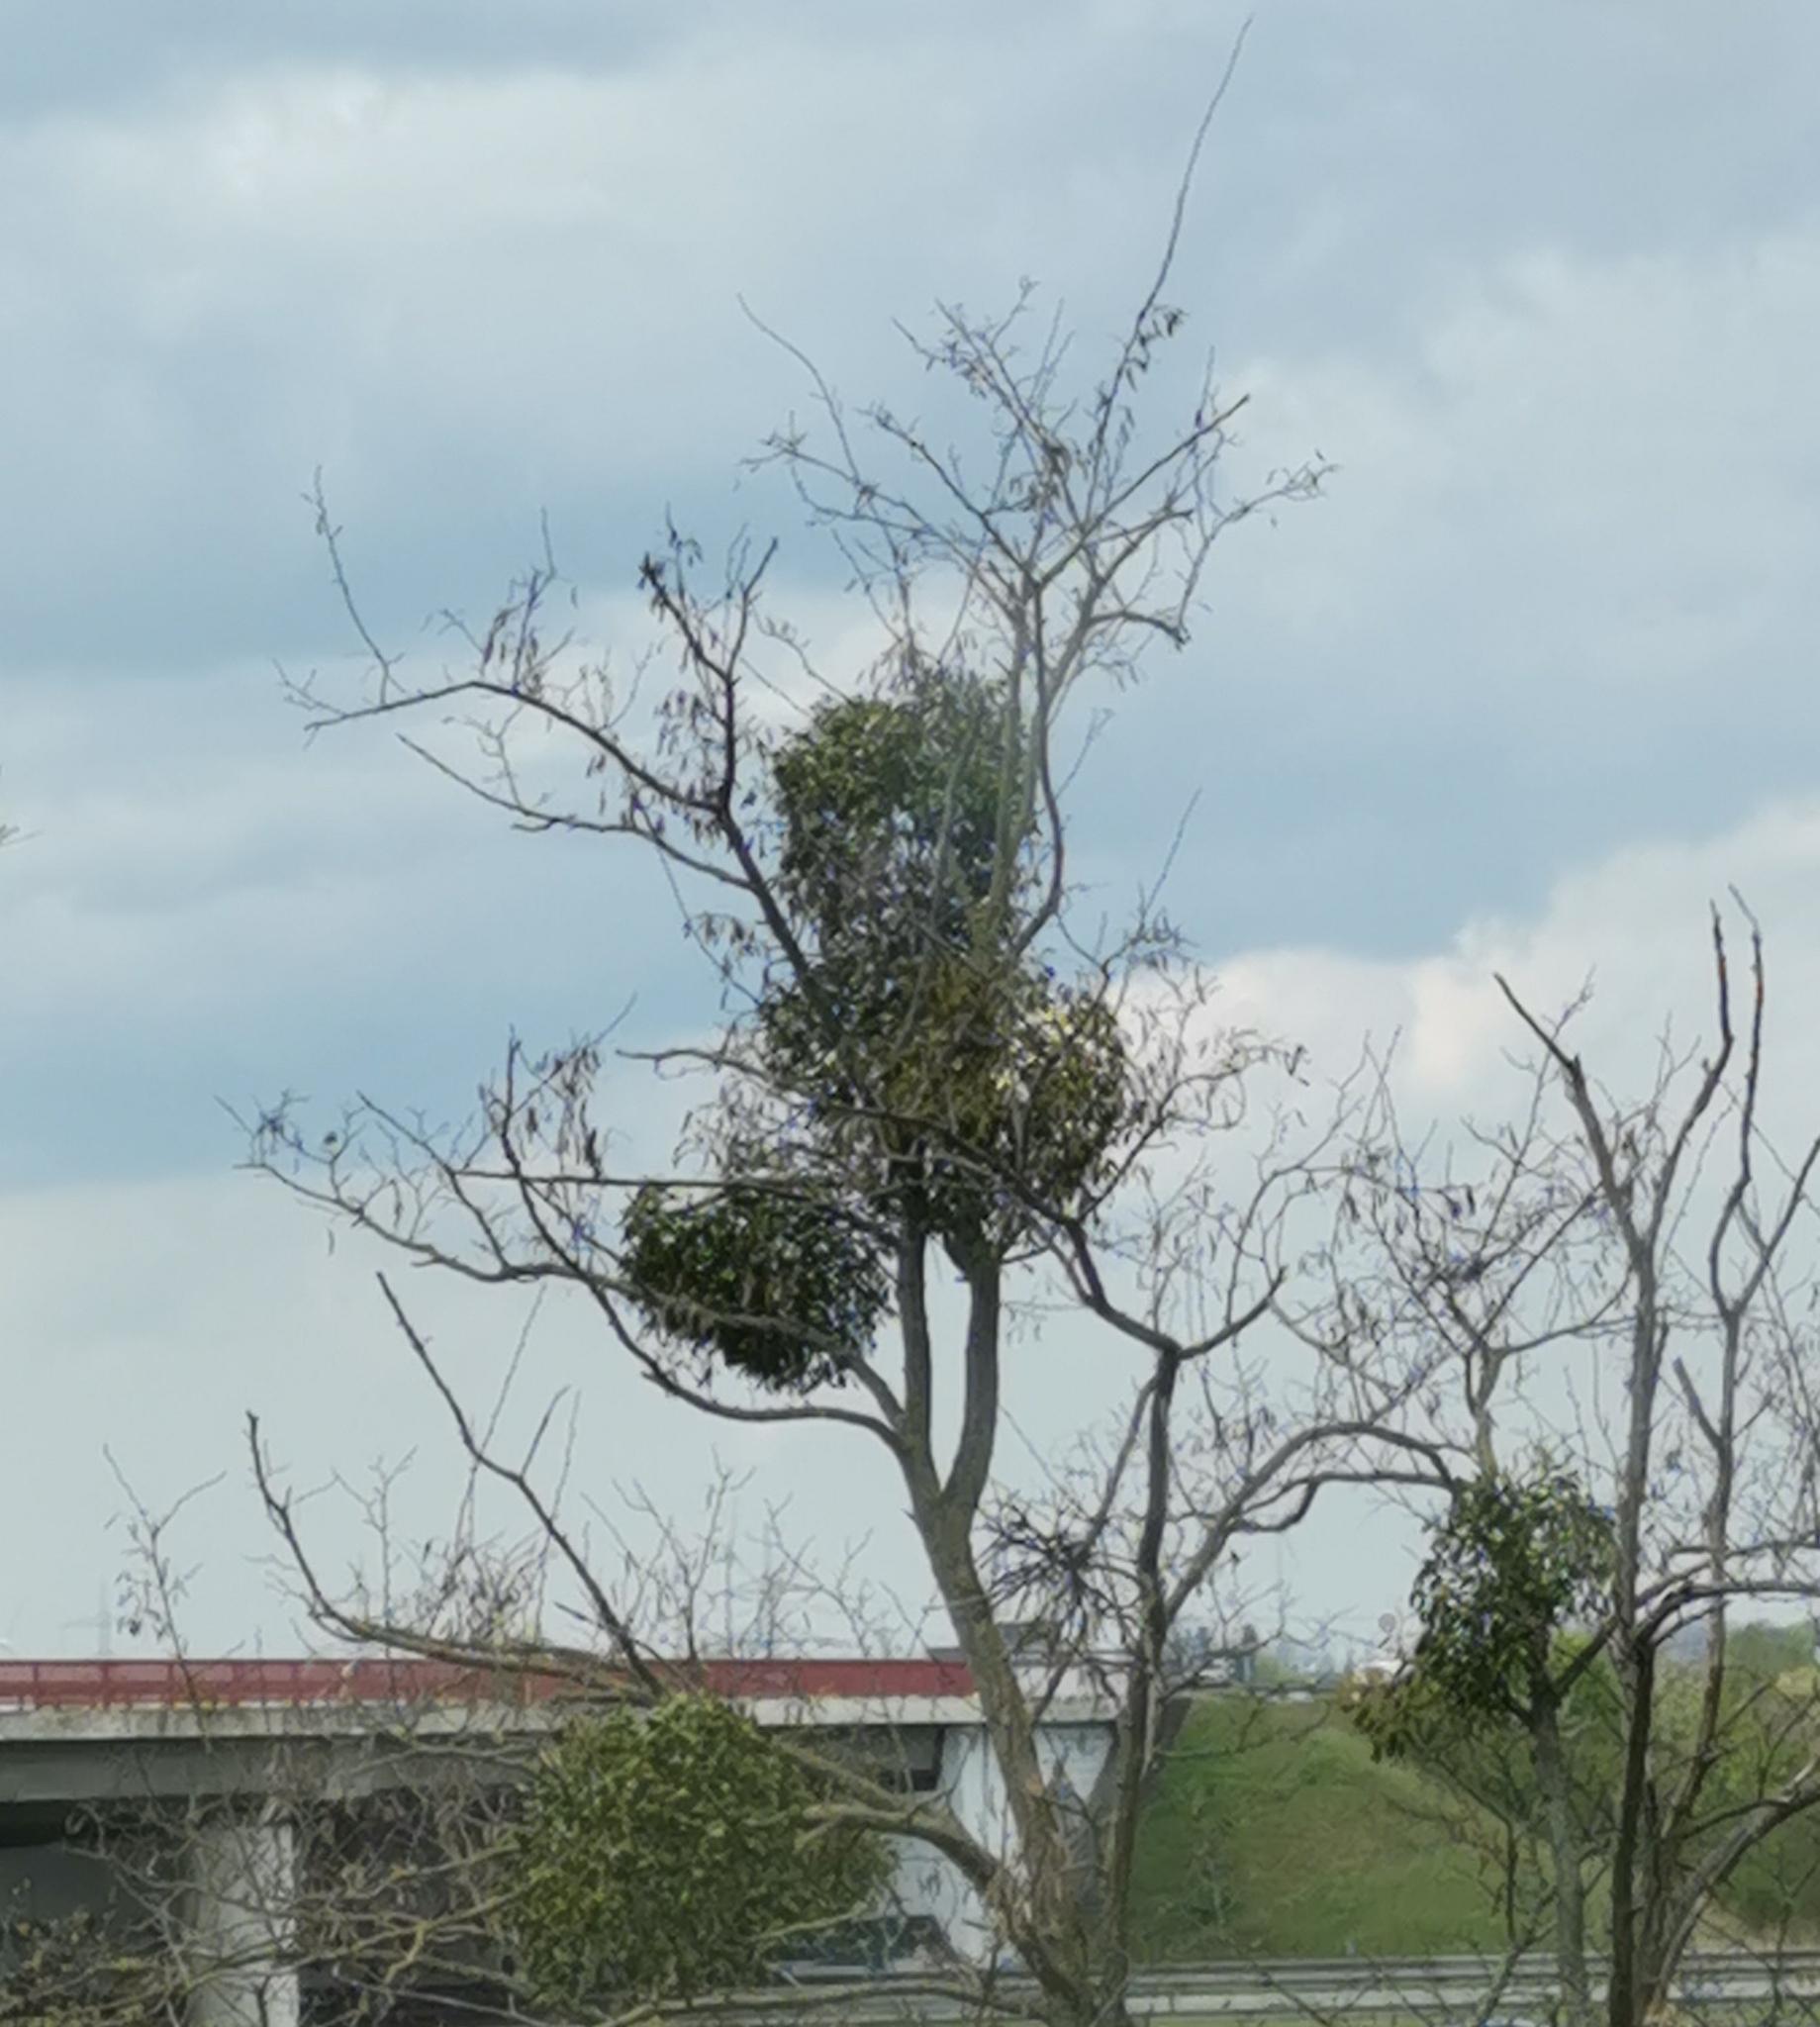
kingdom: Plantae
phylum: Tracheophyta
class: Magnoliopsida
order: Santalales
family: Viscaceae
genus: Viscum
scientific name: Viscum album
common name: Mistletoe
